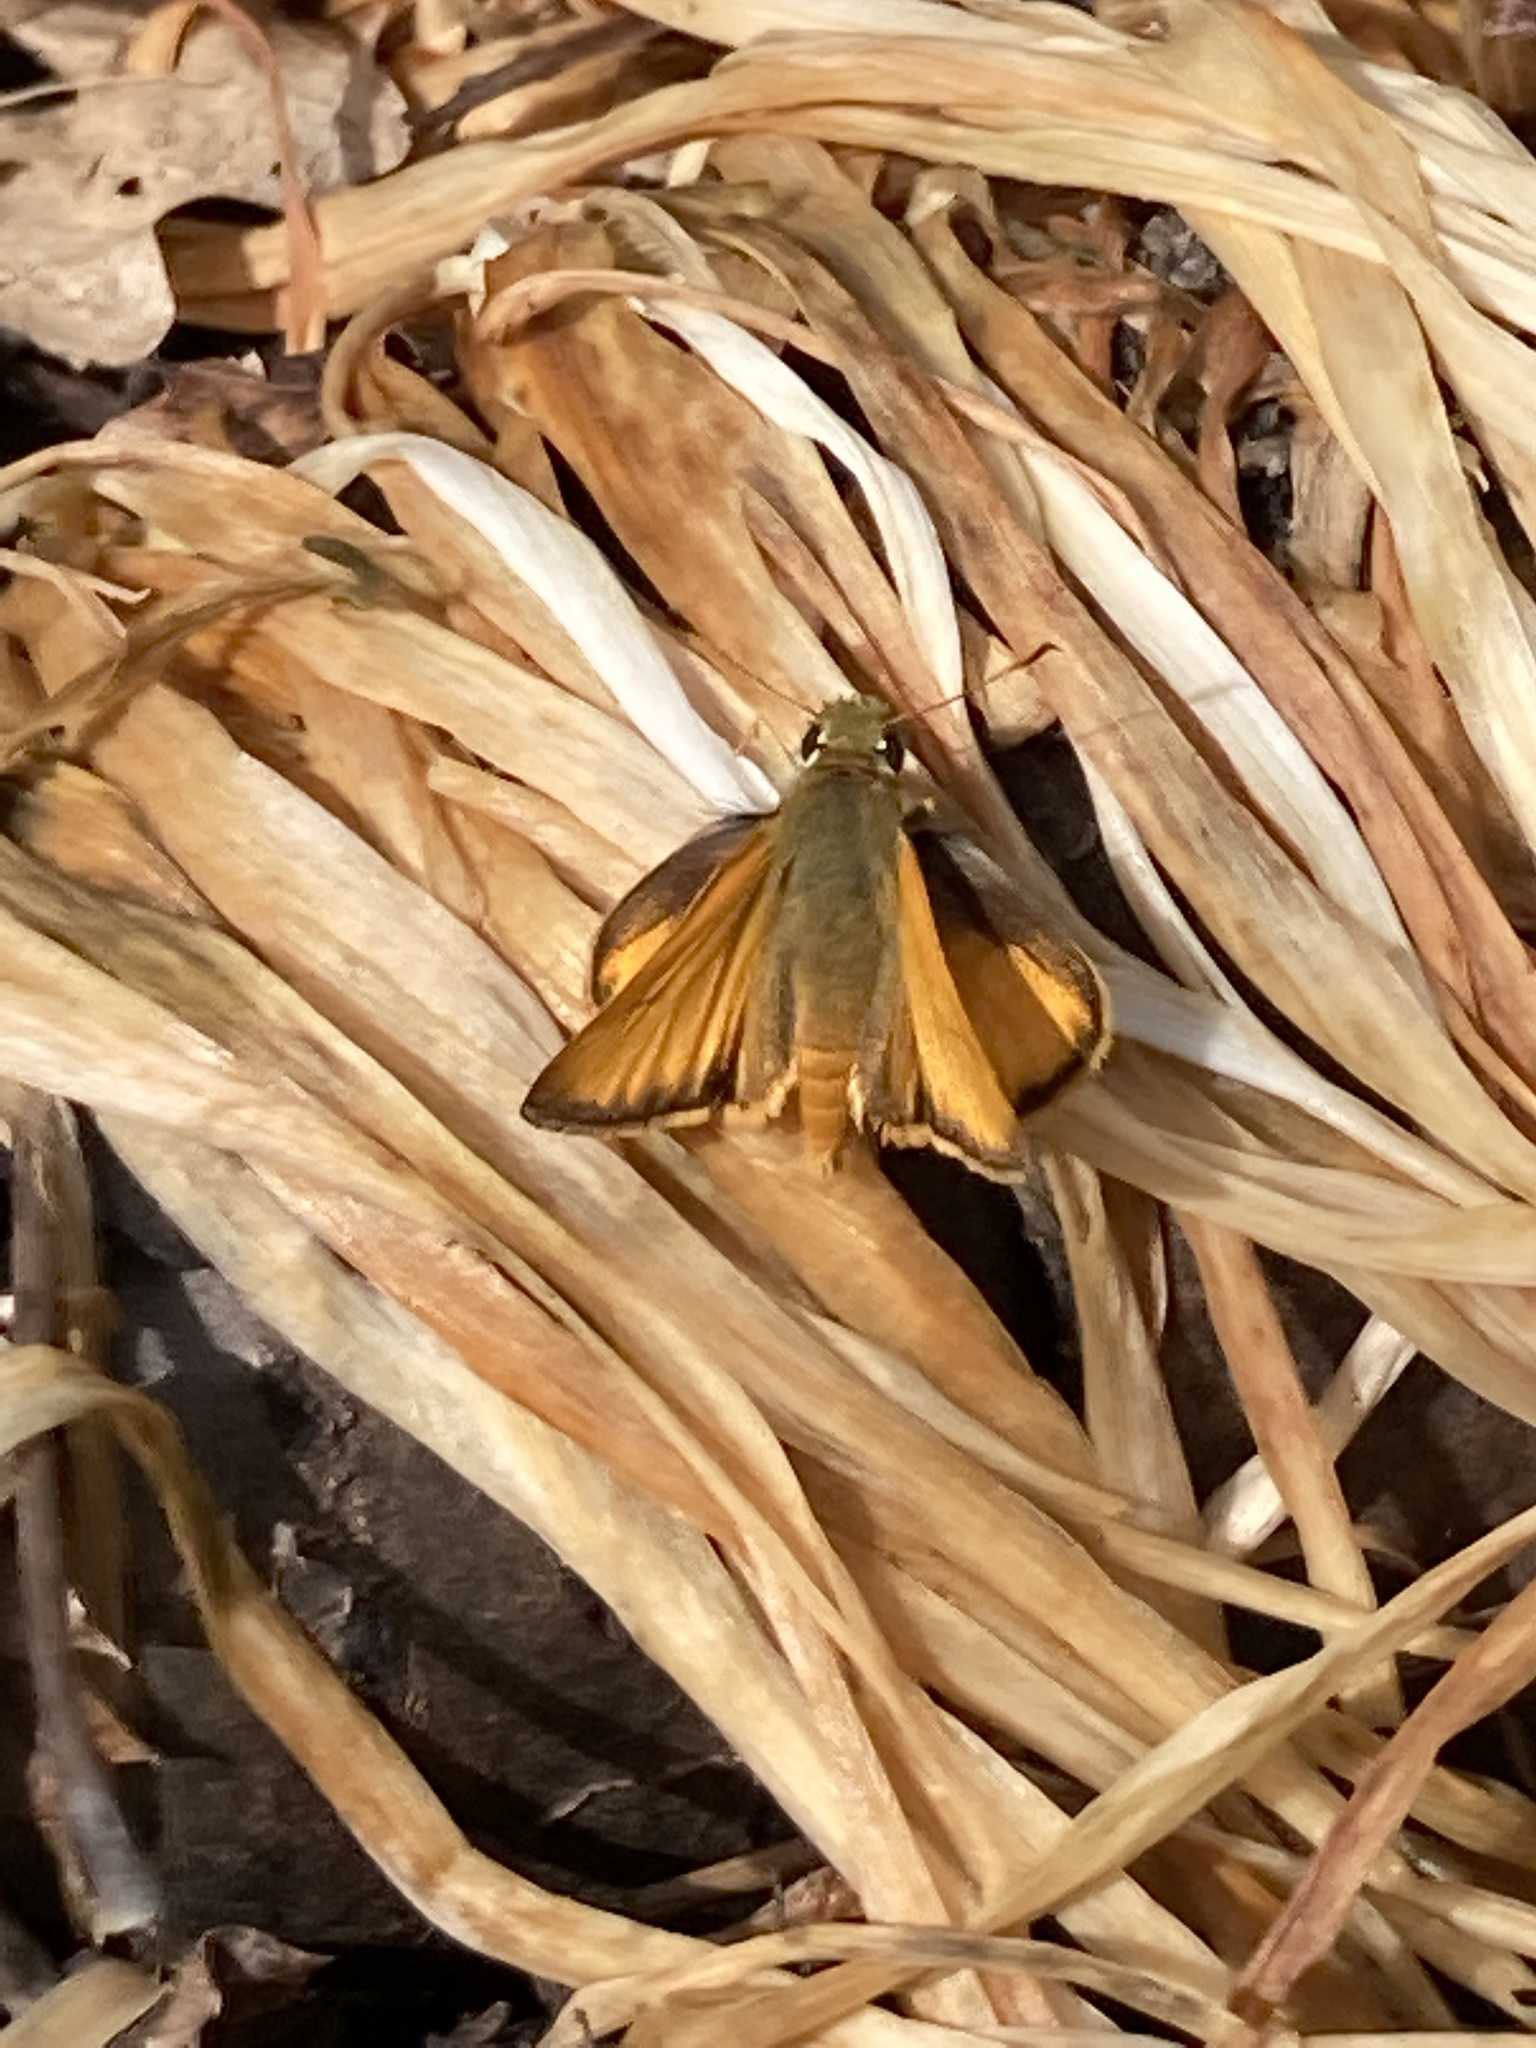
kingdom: Animalia
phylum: Arthropoda
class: Insecta
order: Lepidoptera
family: Hesperiidae
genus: Lon
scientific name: Lon taxiles
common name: Taxiles skipper
